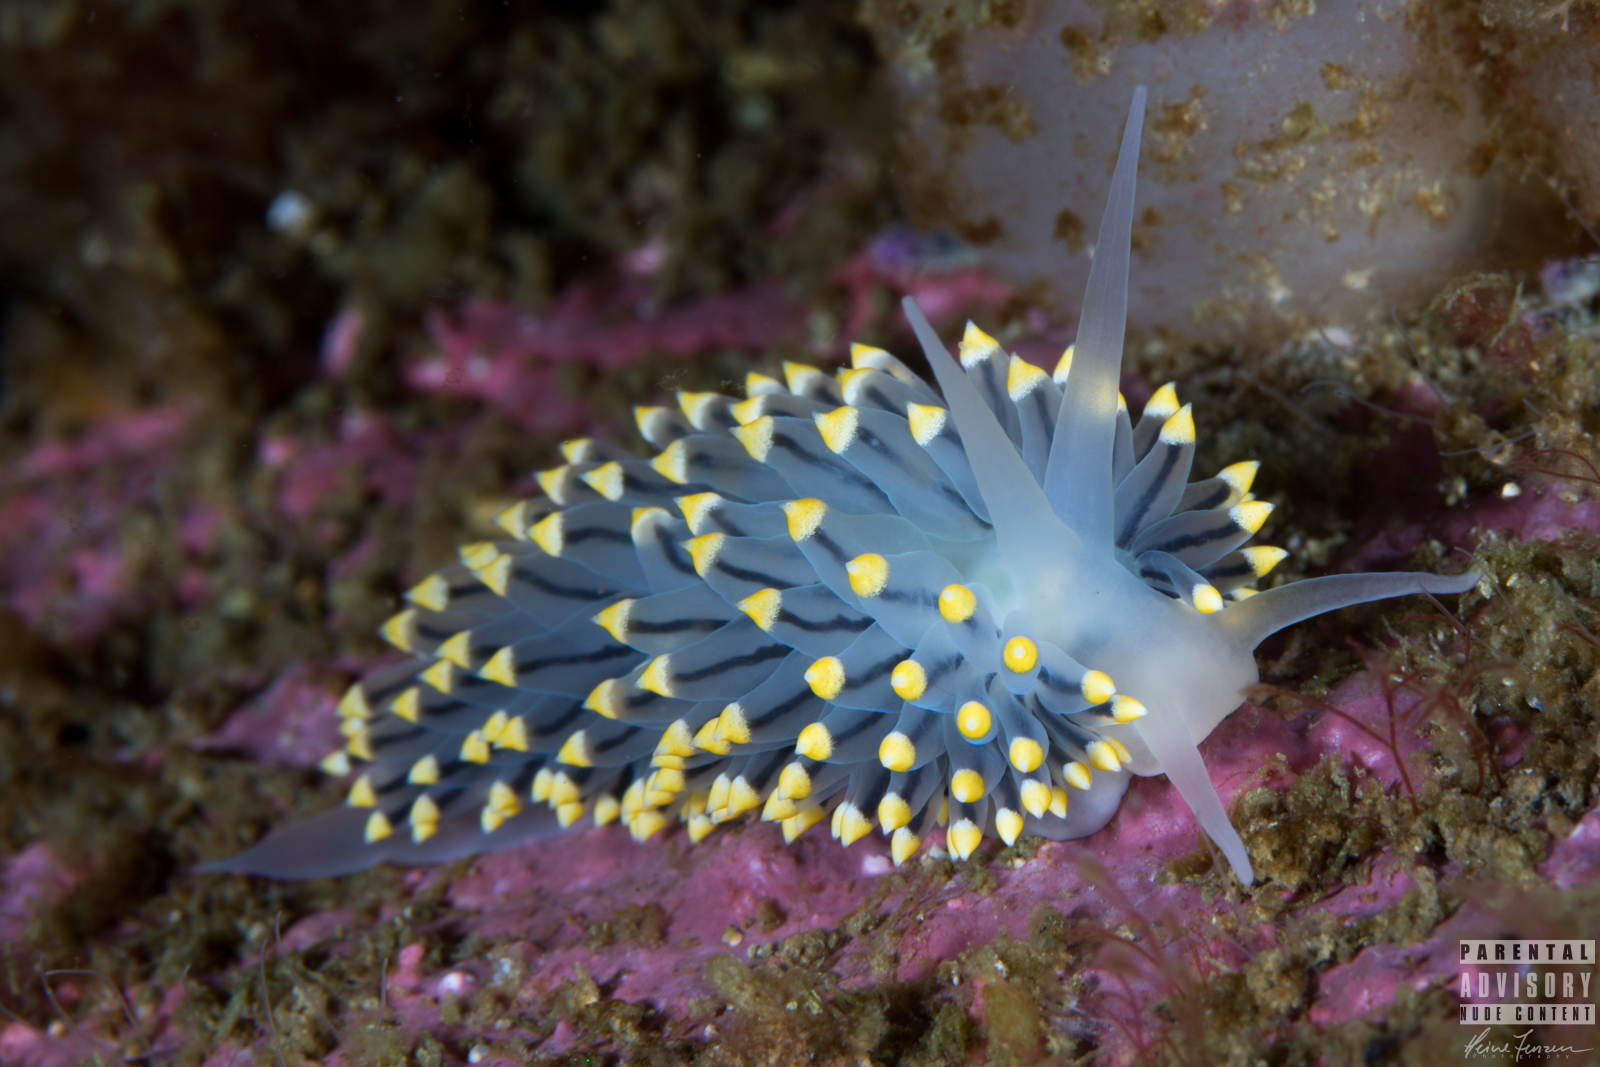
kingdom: Animalia
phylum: Mollusca
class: Gastropoda
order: Nudibranchia
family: Eubranchidae
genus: Eubranchus
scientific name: Eubranchus tricolor
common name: Painted balloon aeolis
